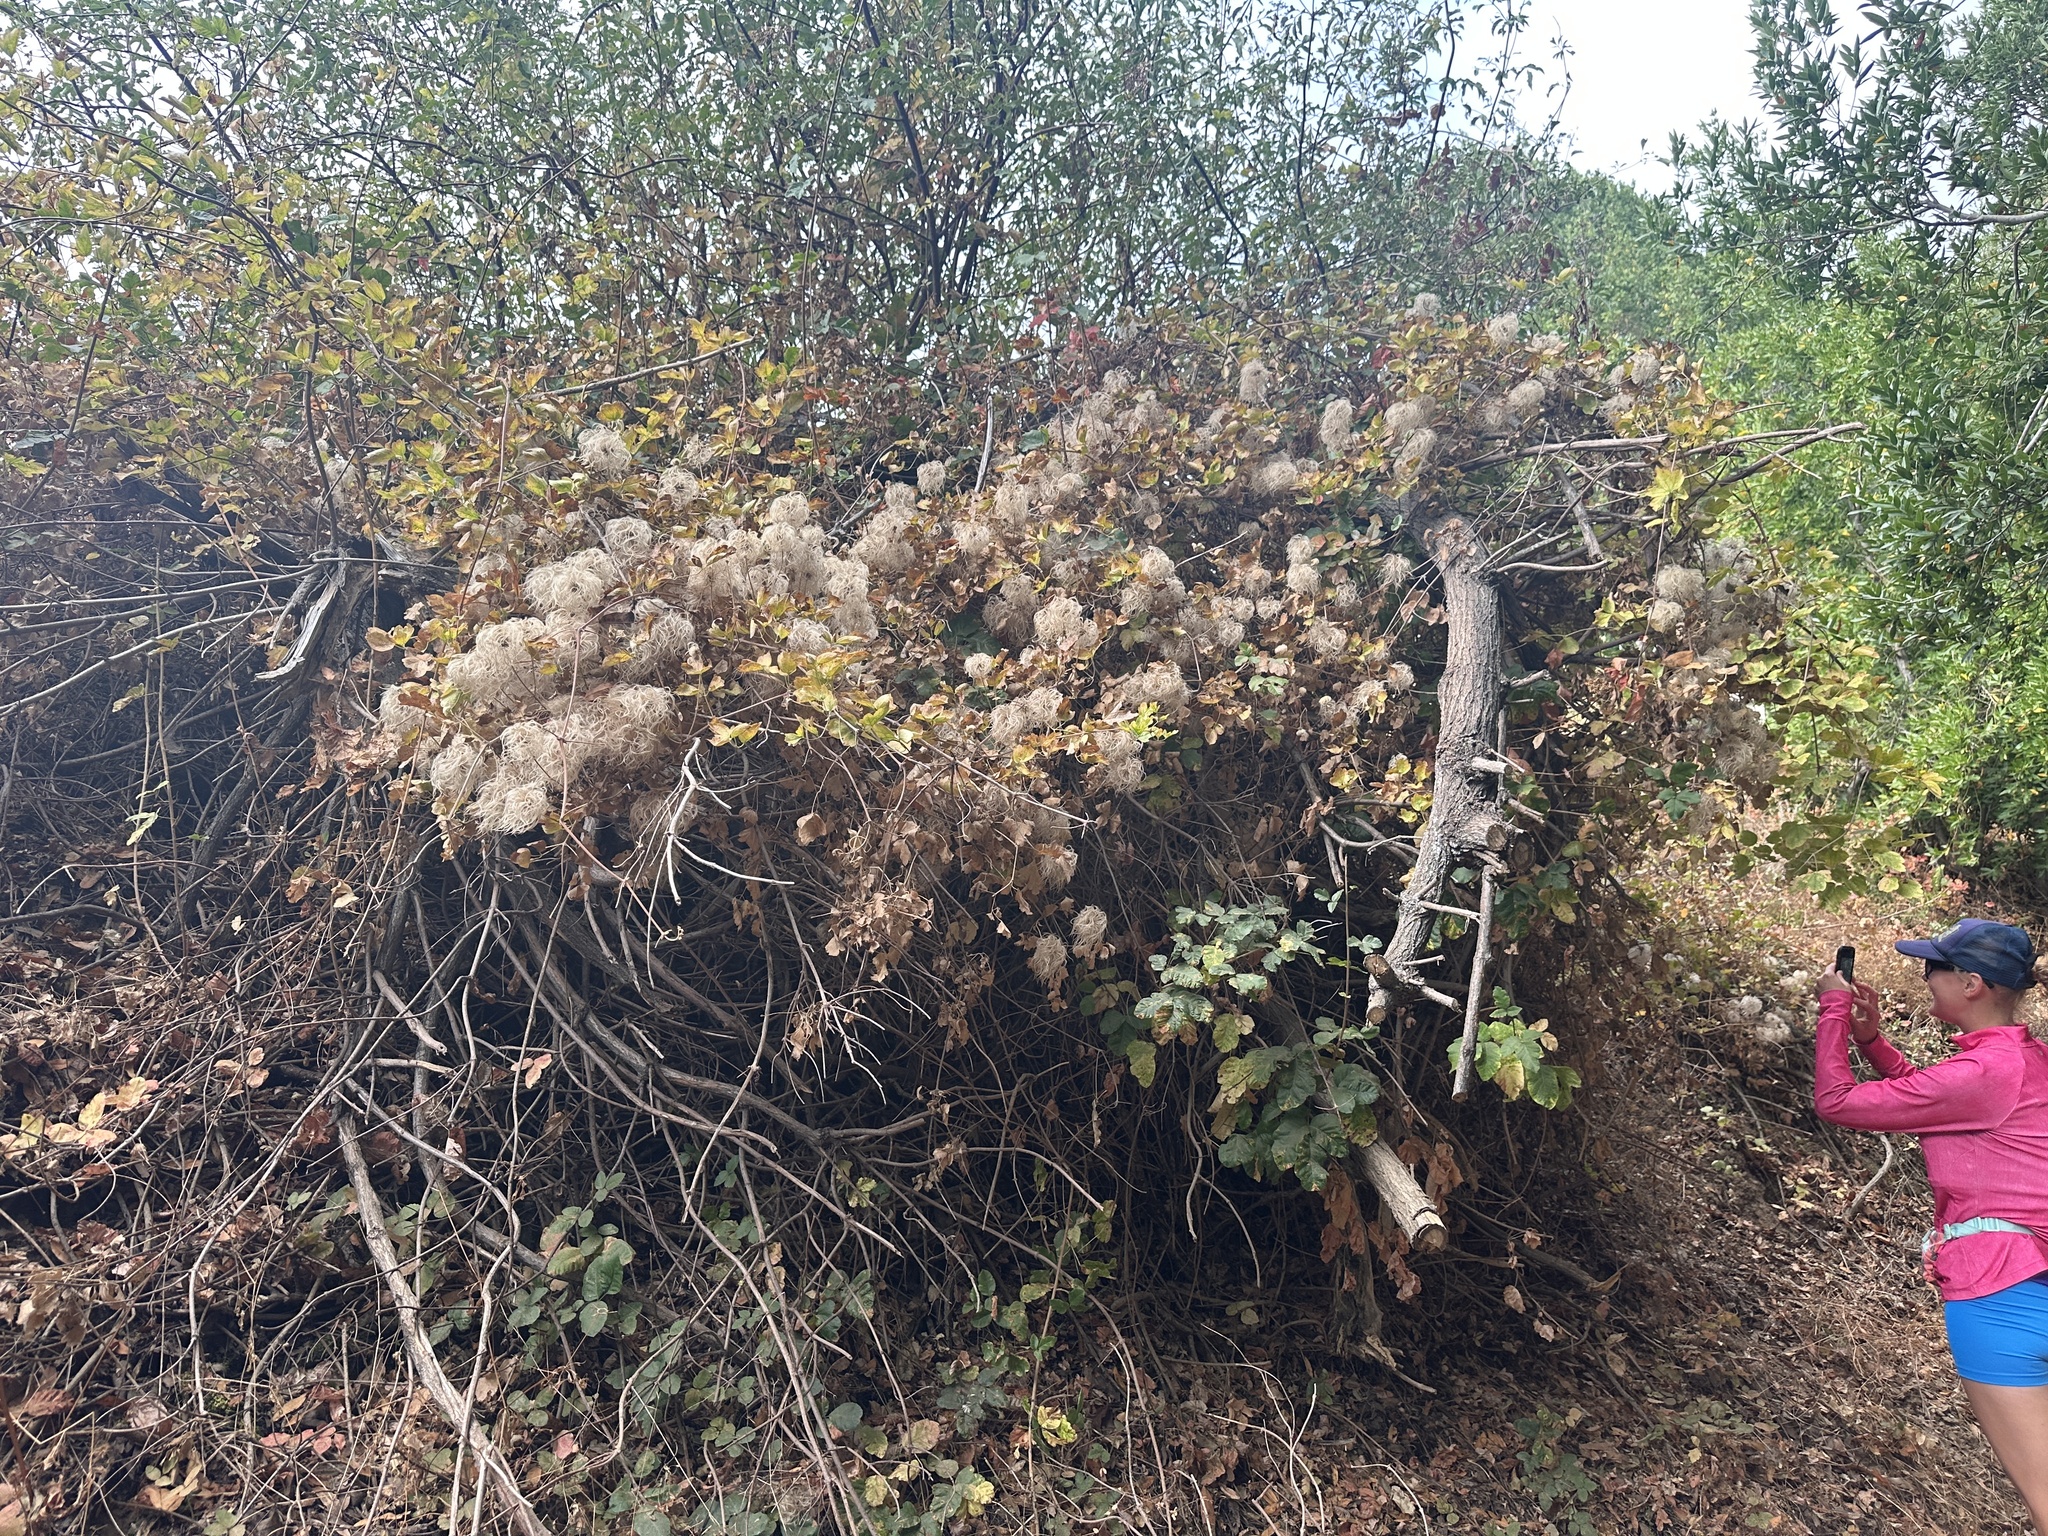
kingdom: Plantae
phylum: Tracheophyta
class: Magnoliopsida
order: Ranunculales
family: Ranunculaceae
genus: Clematis
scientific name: Clematis lasiantha
